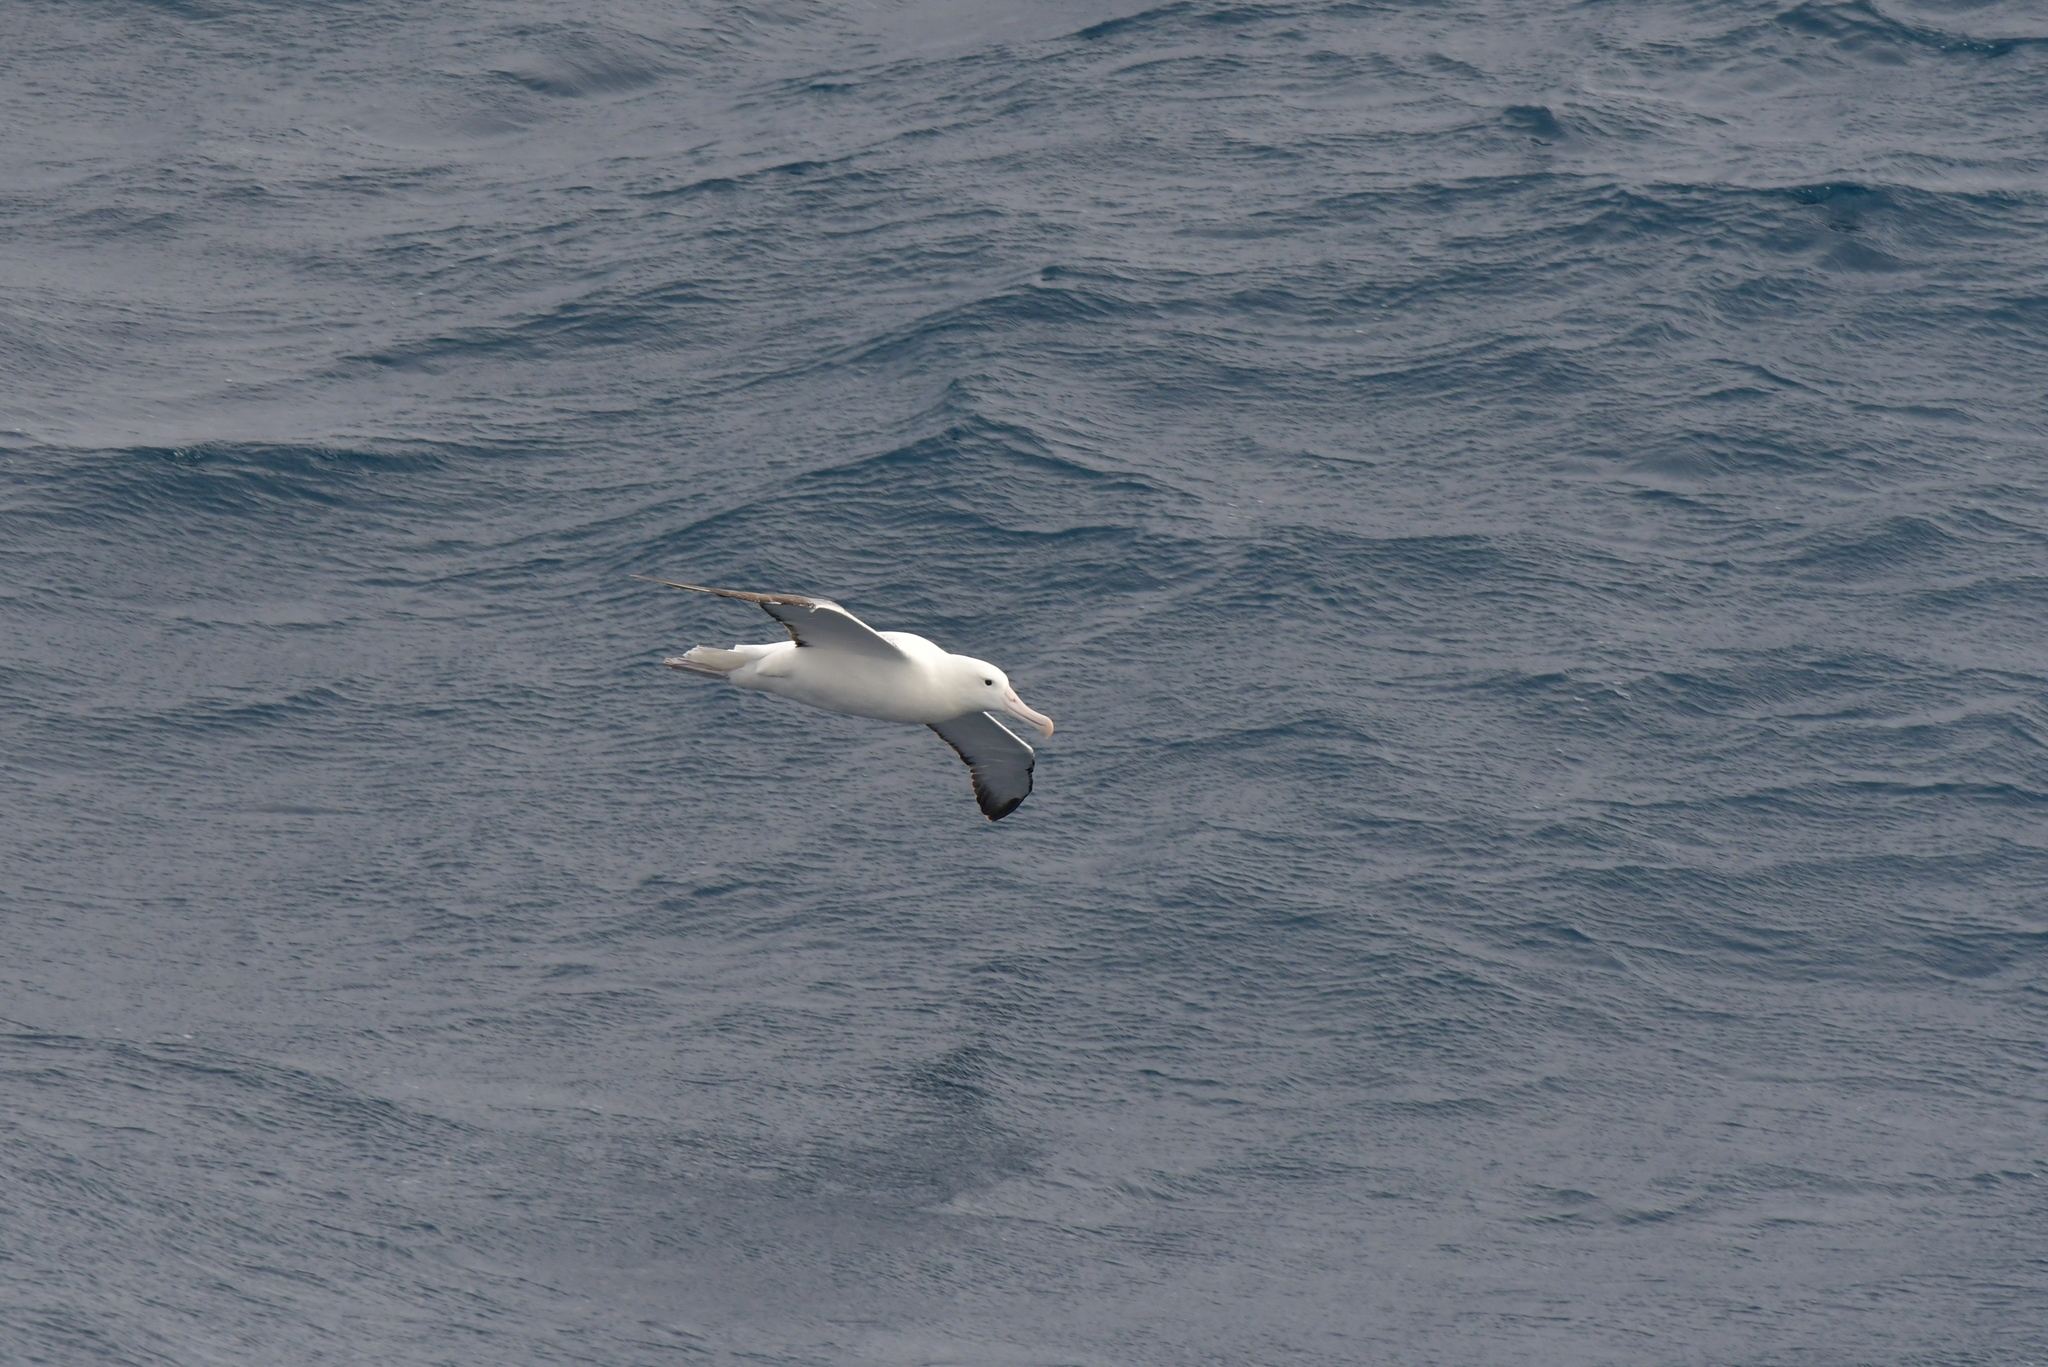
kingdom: Animalia
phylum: Chordata
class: Aves
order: Procellariiformes
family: Diomedeidae
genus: Diomedea
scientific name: Diomedea epomophora
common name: Southern royal albatross
